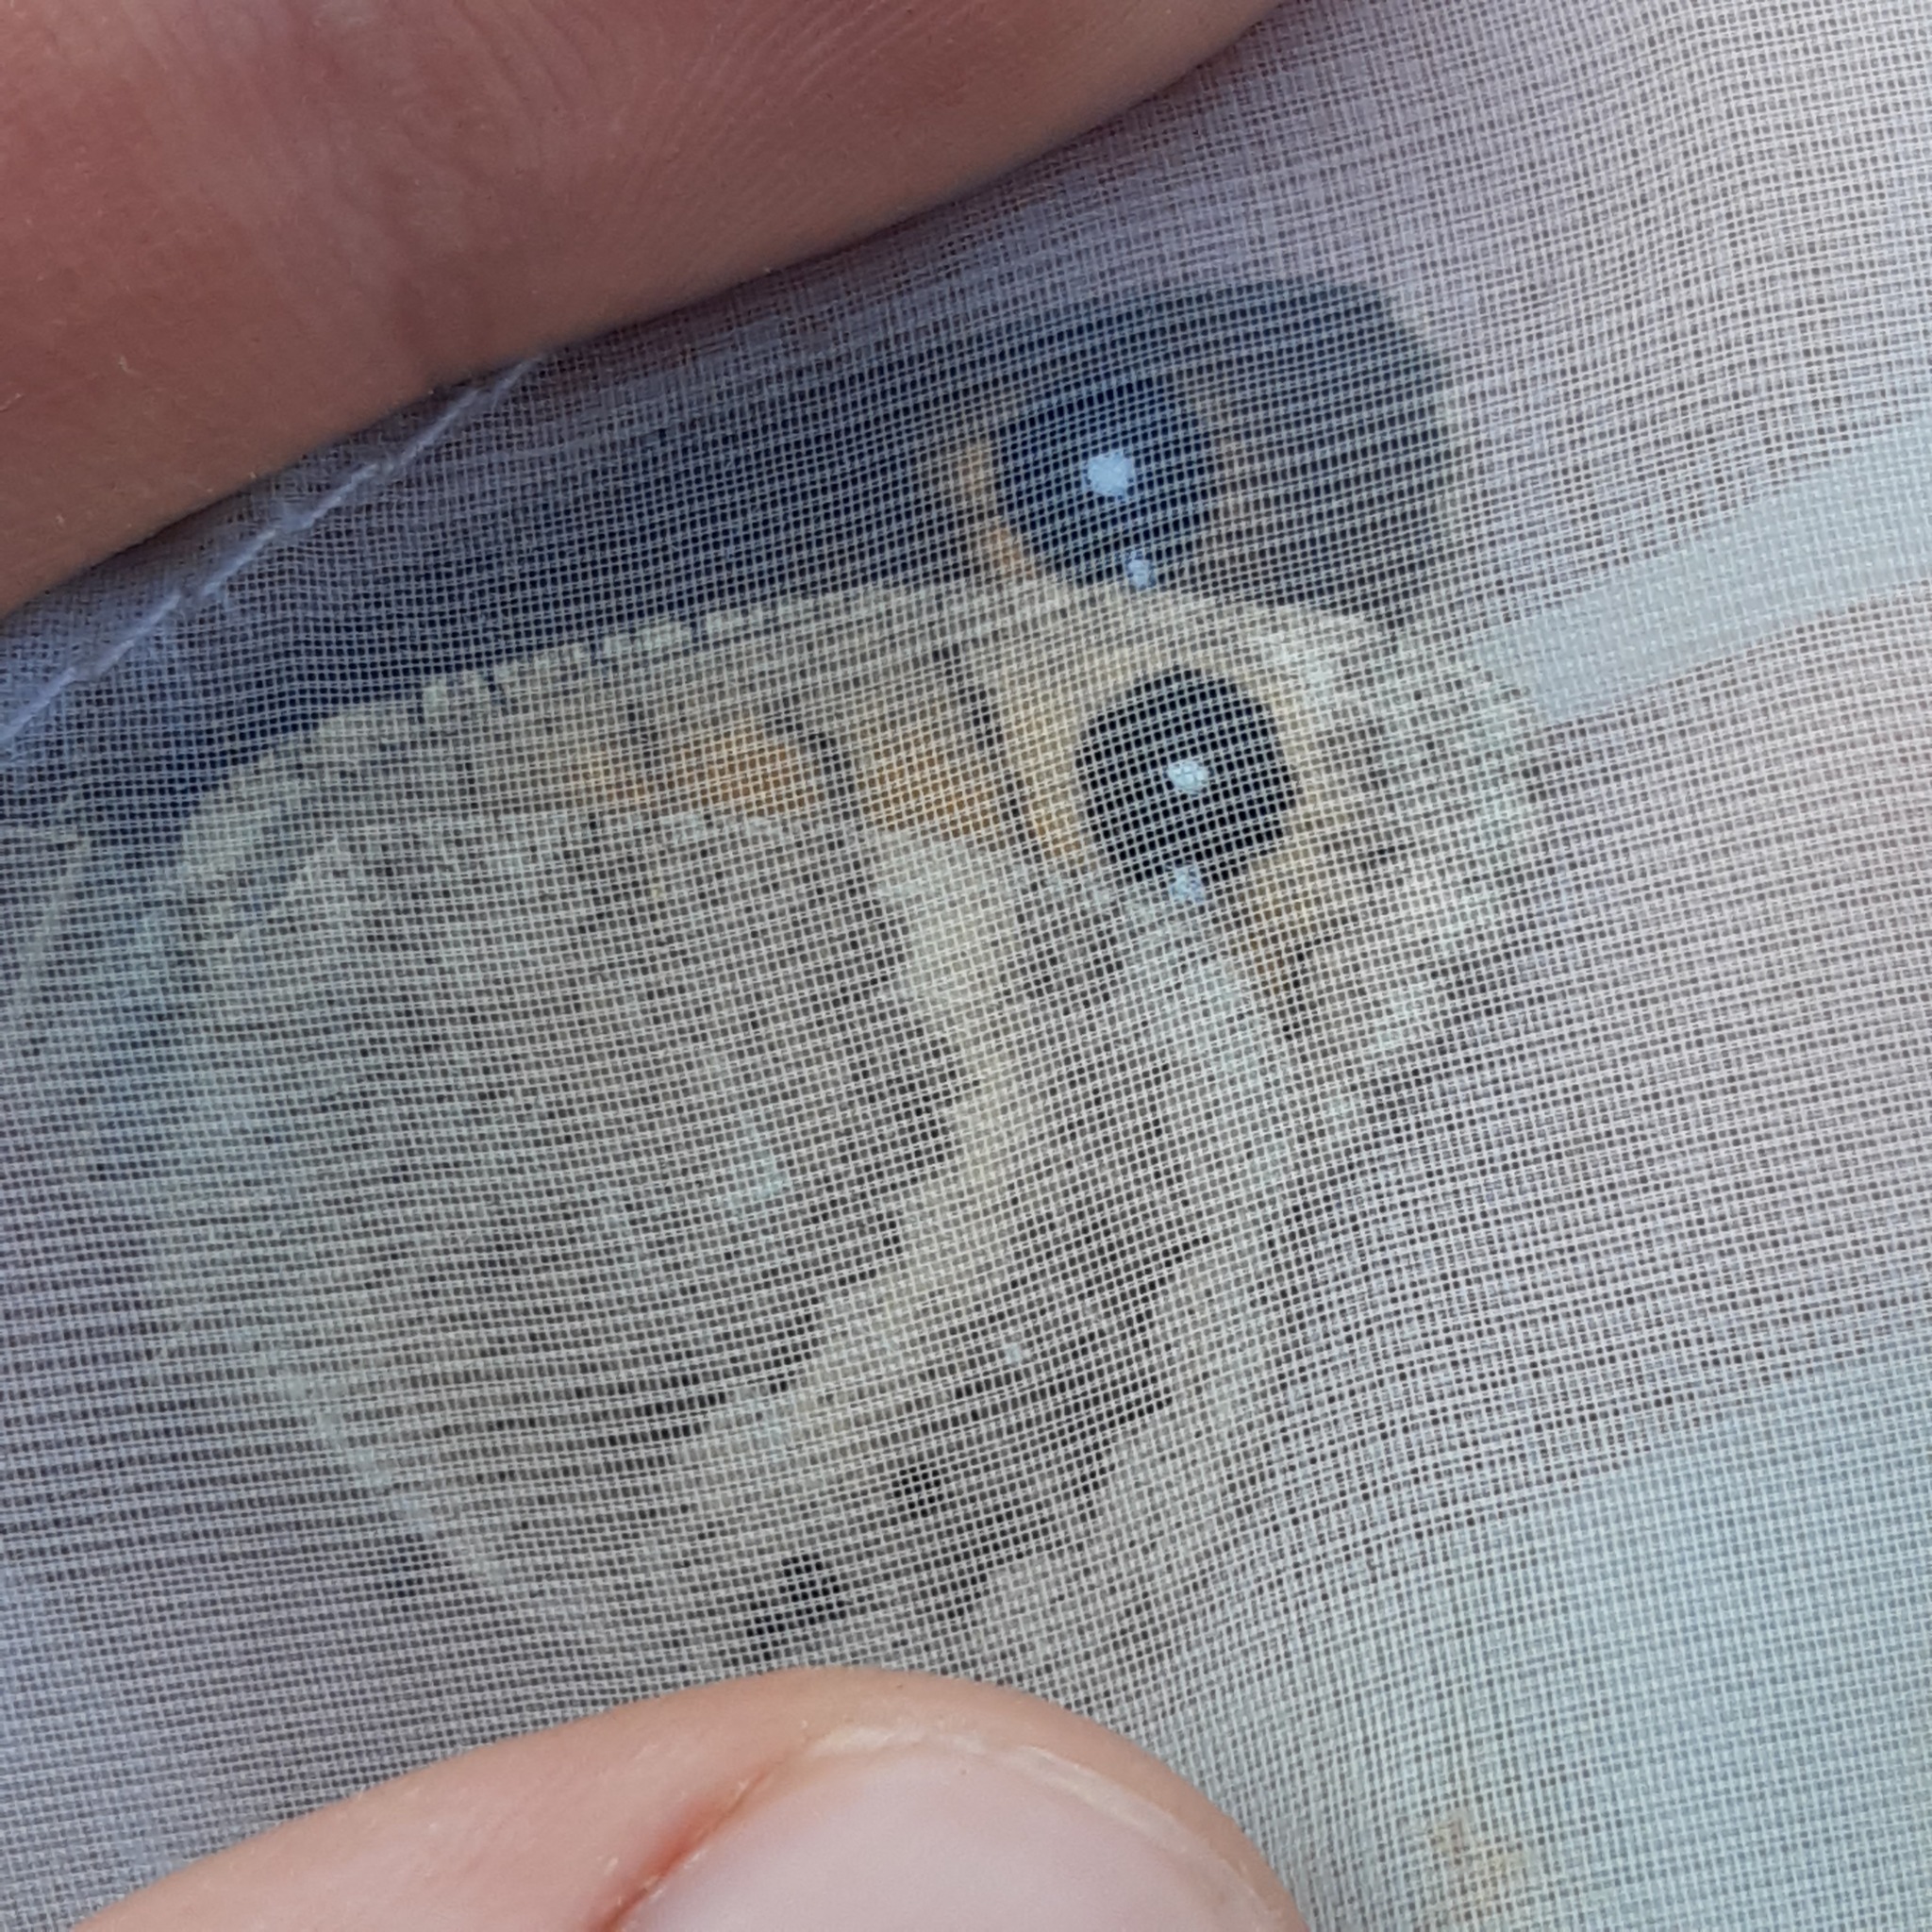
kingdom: Animalia
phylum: Arthropoda
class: Insecta
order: Lepidoptera
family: Nymphalidae
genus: Satyrus
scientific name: Satyrus ferula
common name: Great sooty satyr
